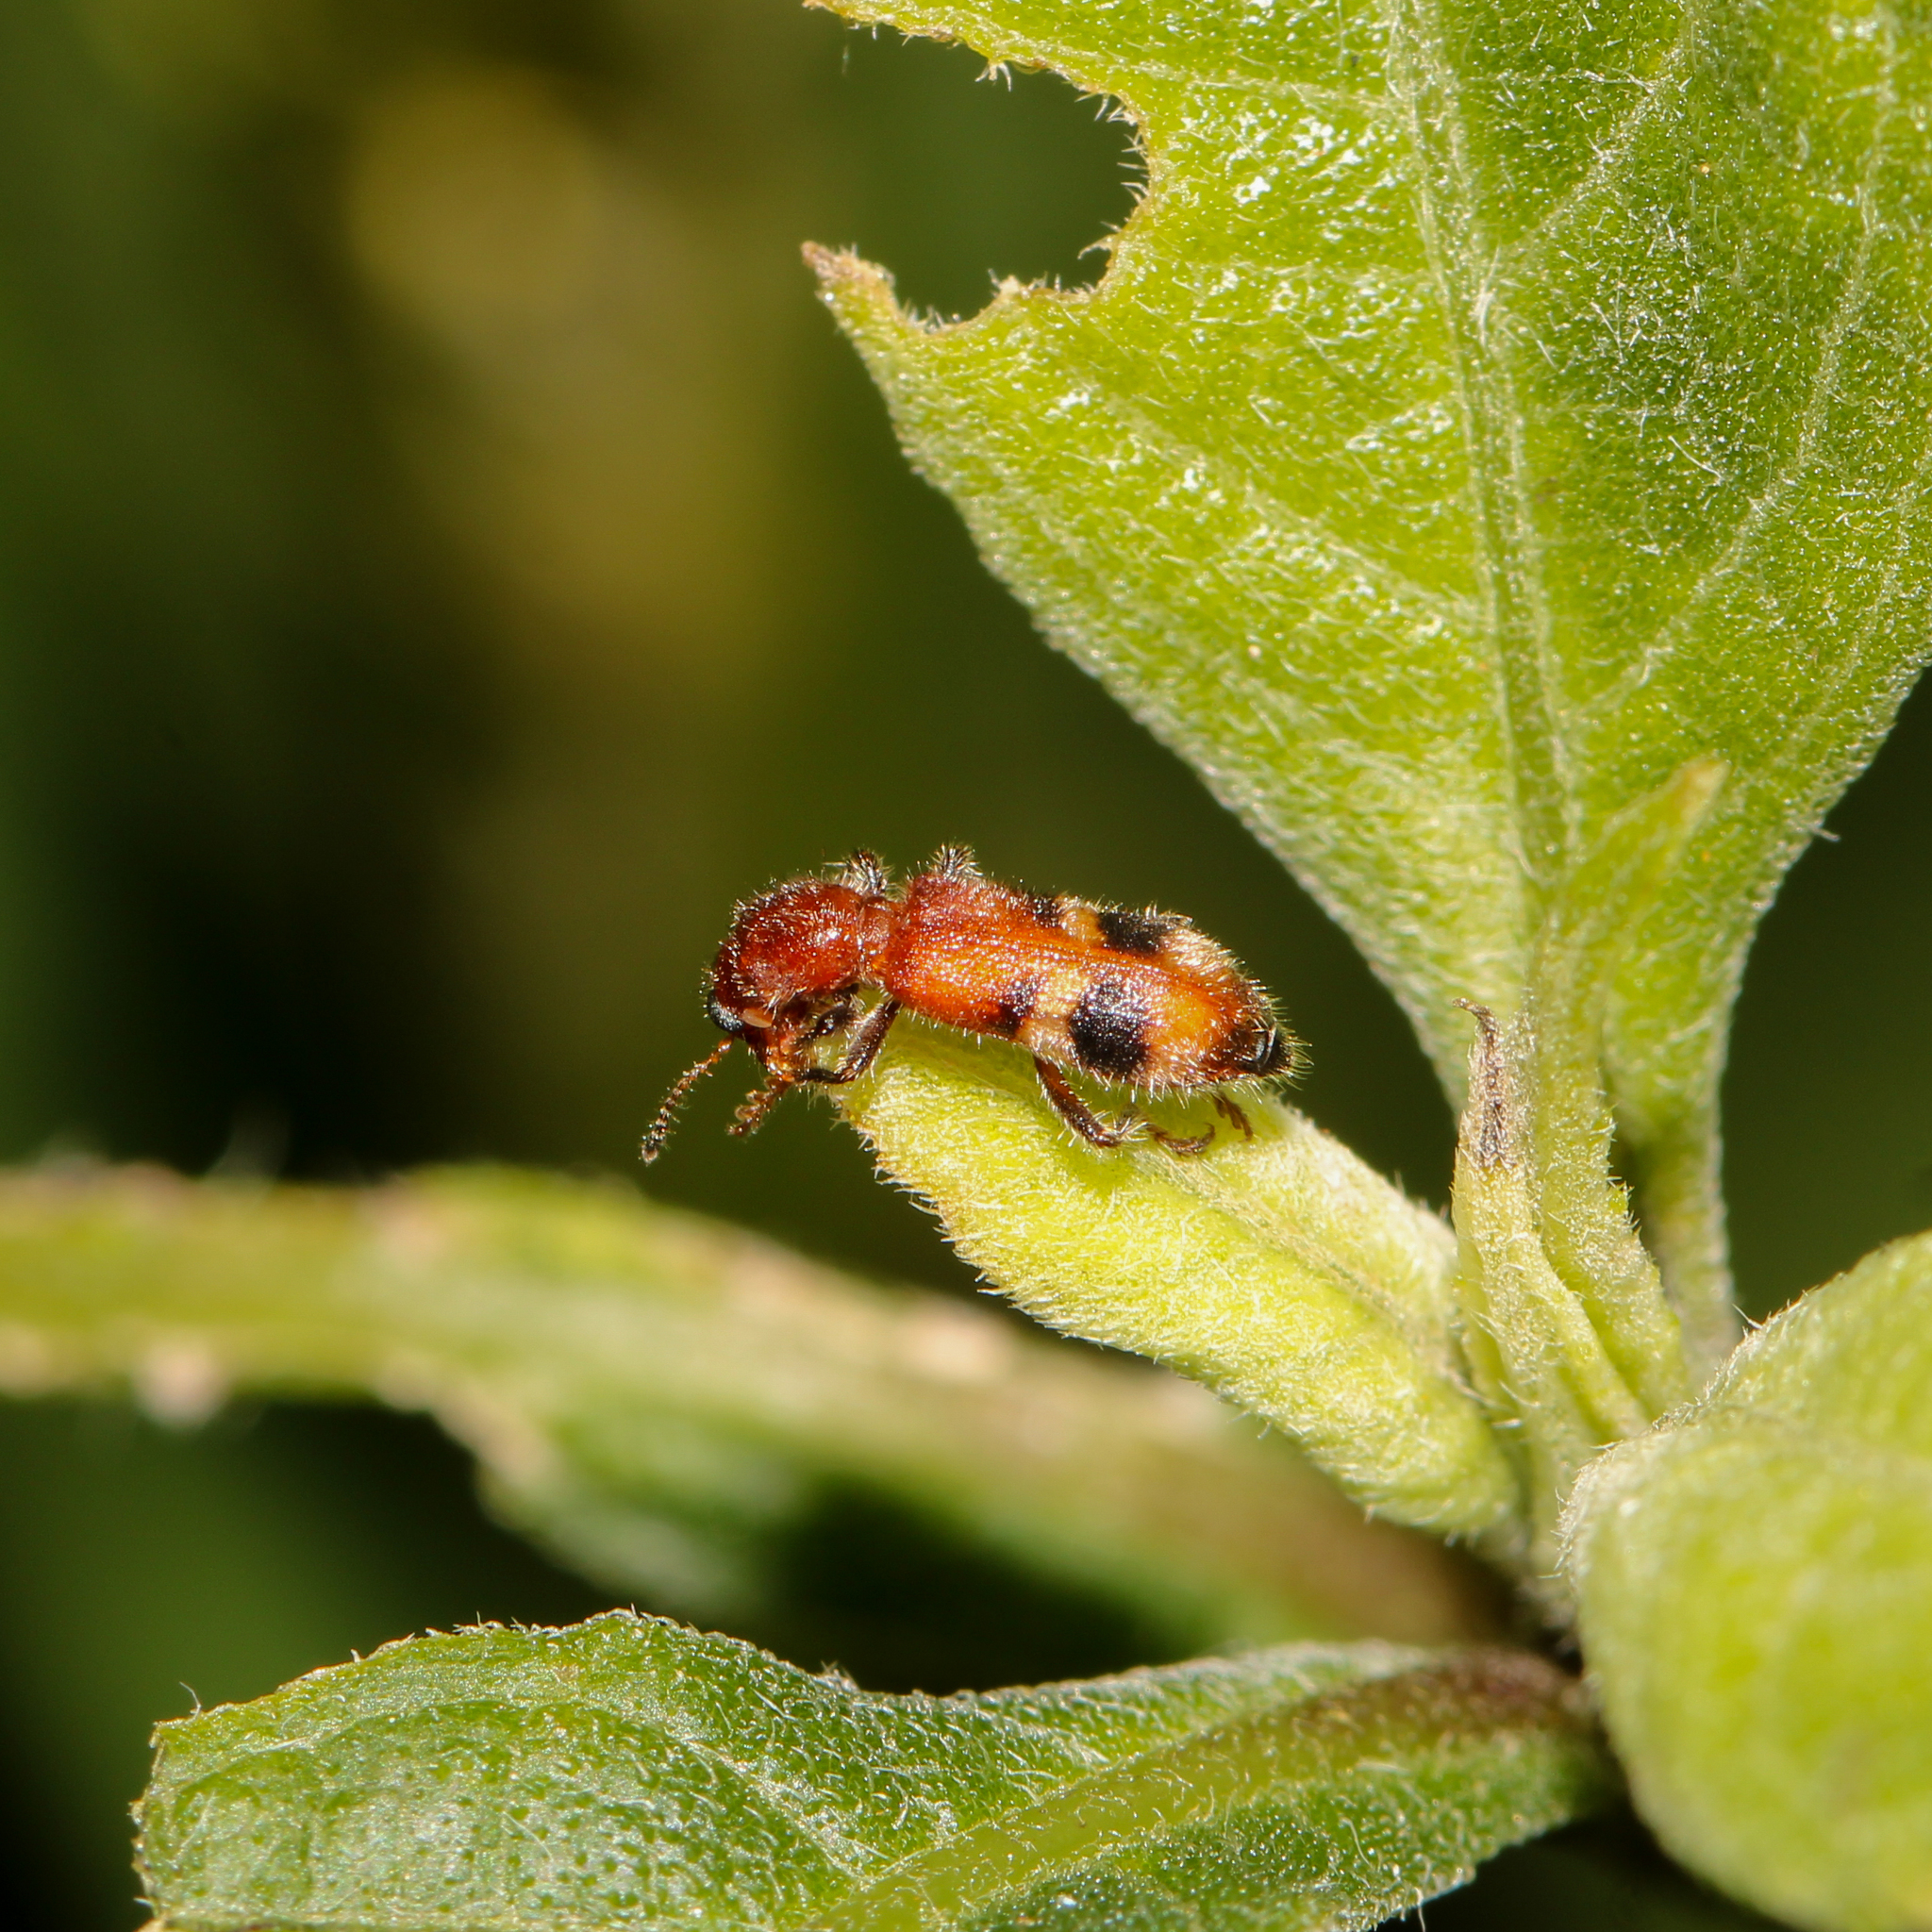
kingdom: Animalia
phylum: Arthropoda
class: Insecta
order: Coleoptera
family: Cleridae
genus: Enoclerus
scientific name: Enoclerus rosmarus
